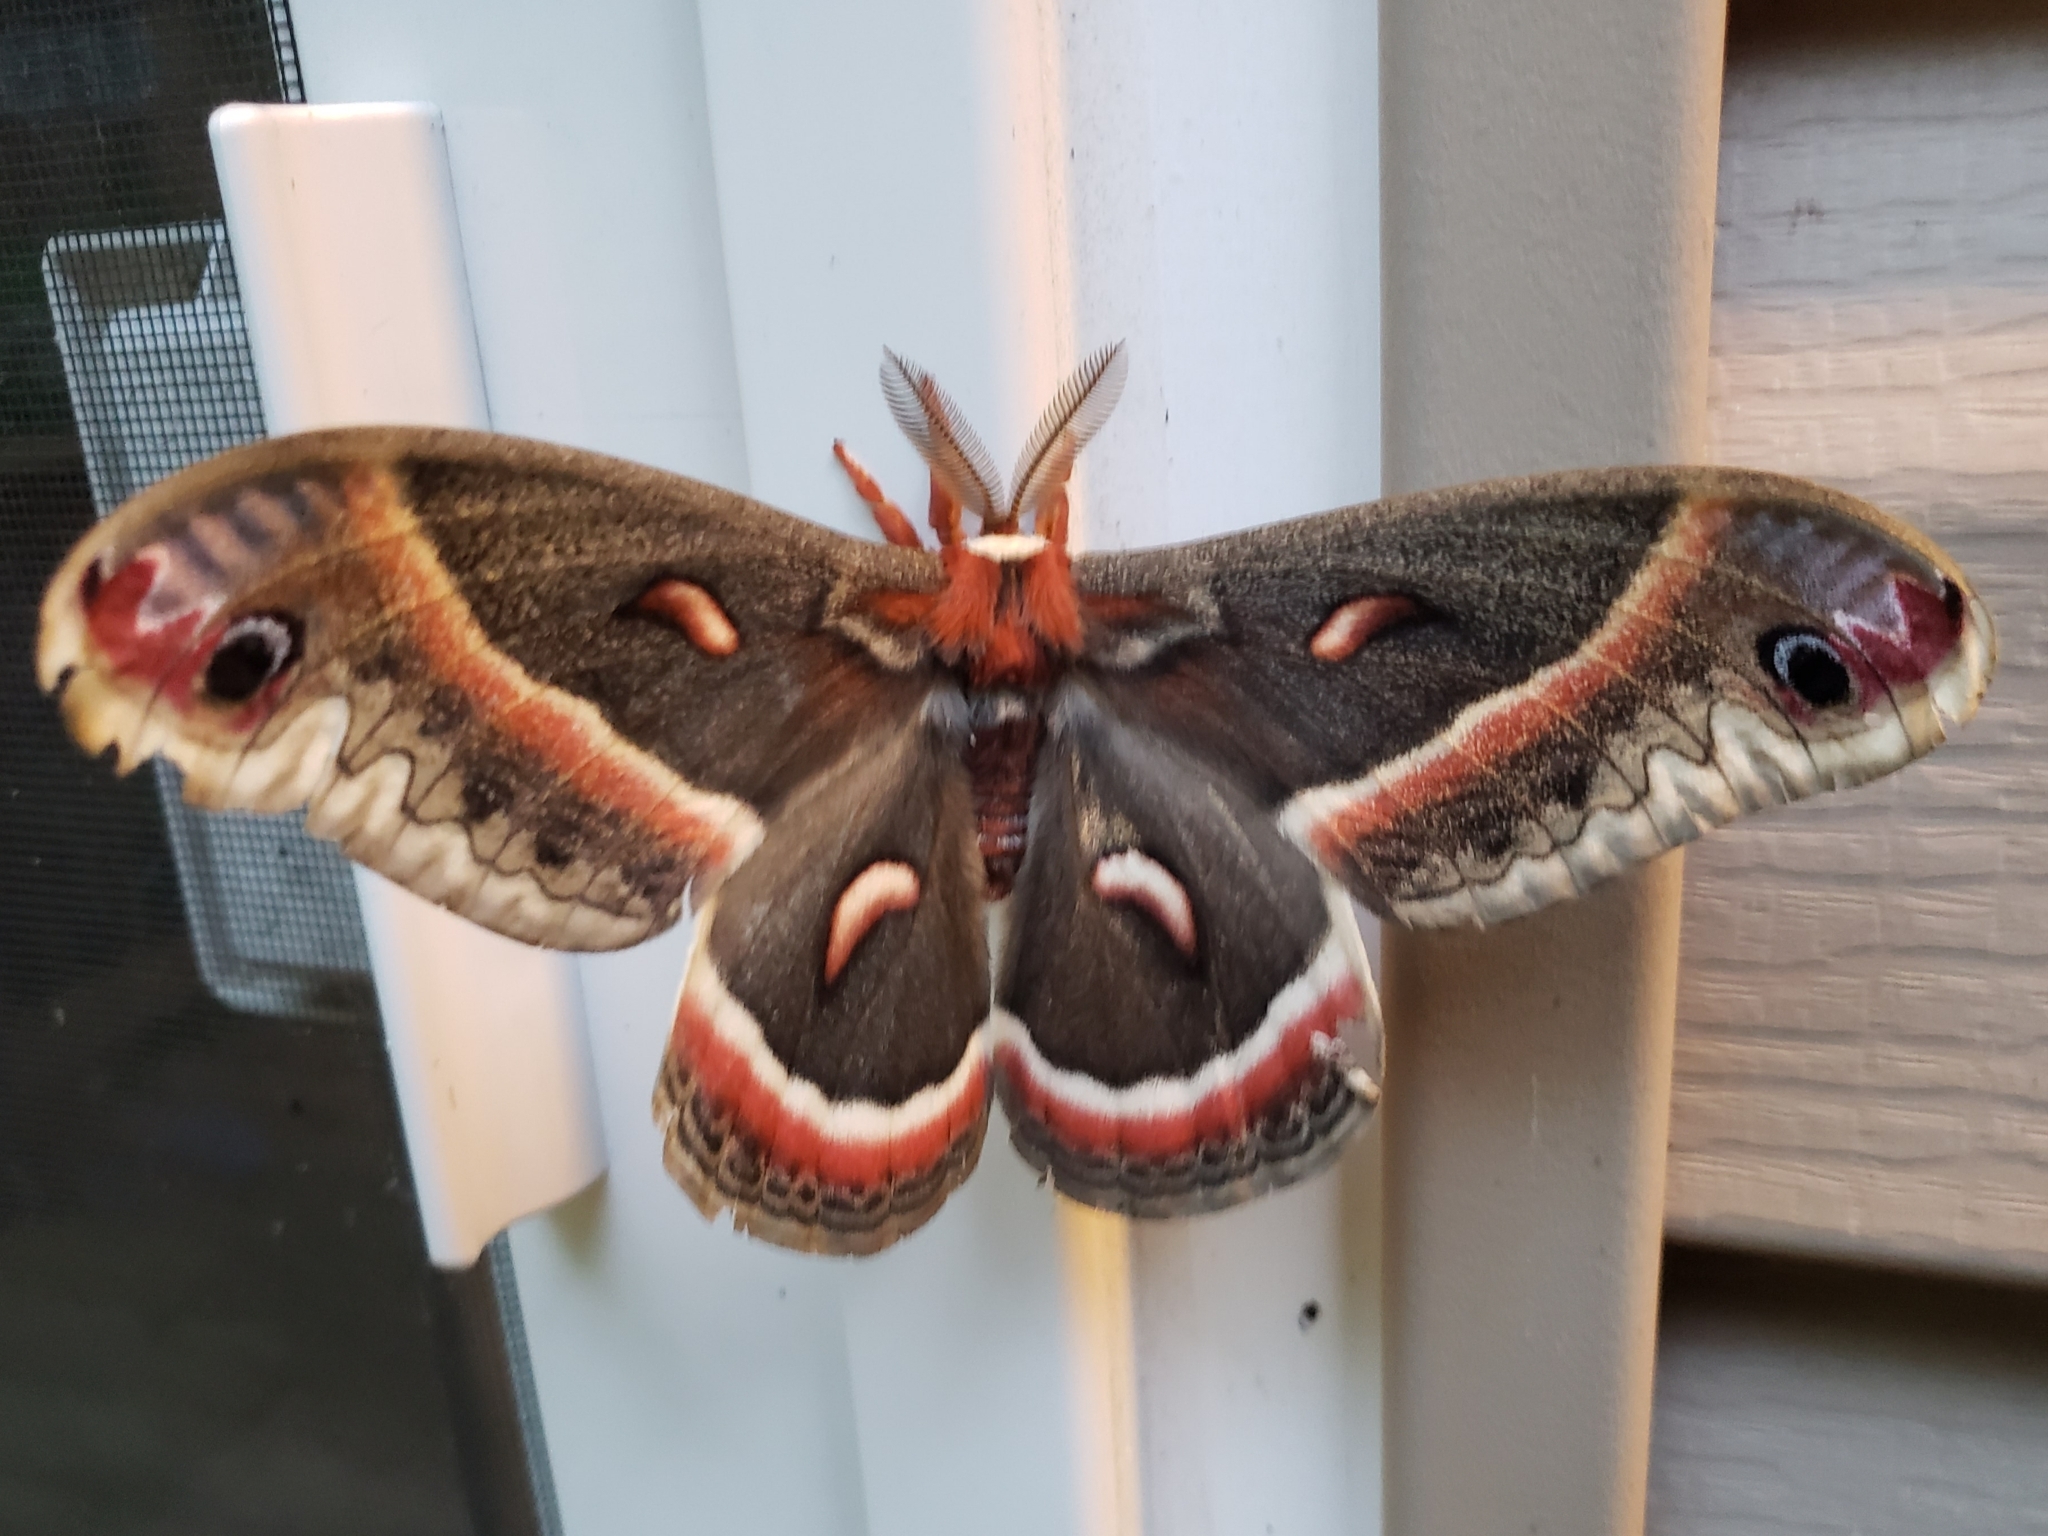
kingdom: Animalia
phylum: Arthropoda
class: Insecta
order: Lepidoptera
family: Saturniidae
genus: Hyalophora
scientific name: Hyalophora cecropia
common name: Cecropia silkmoth
